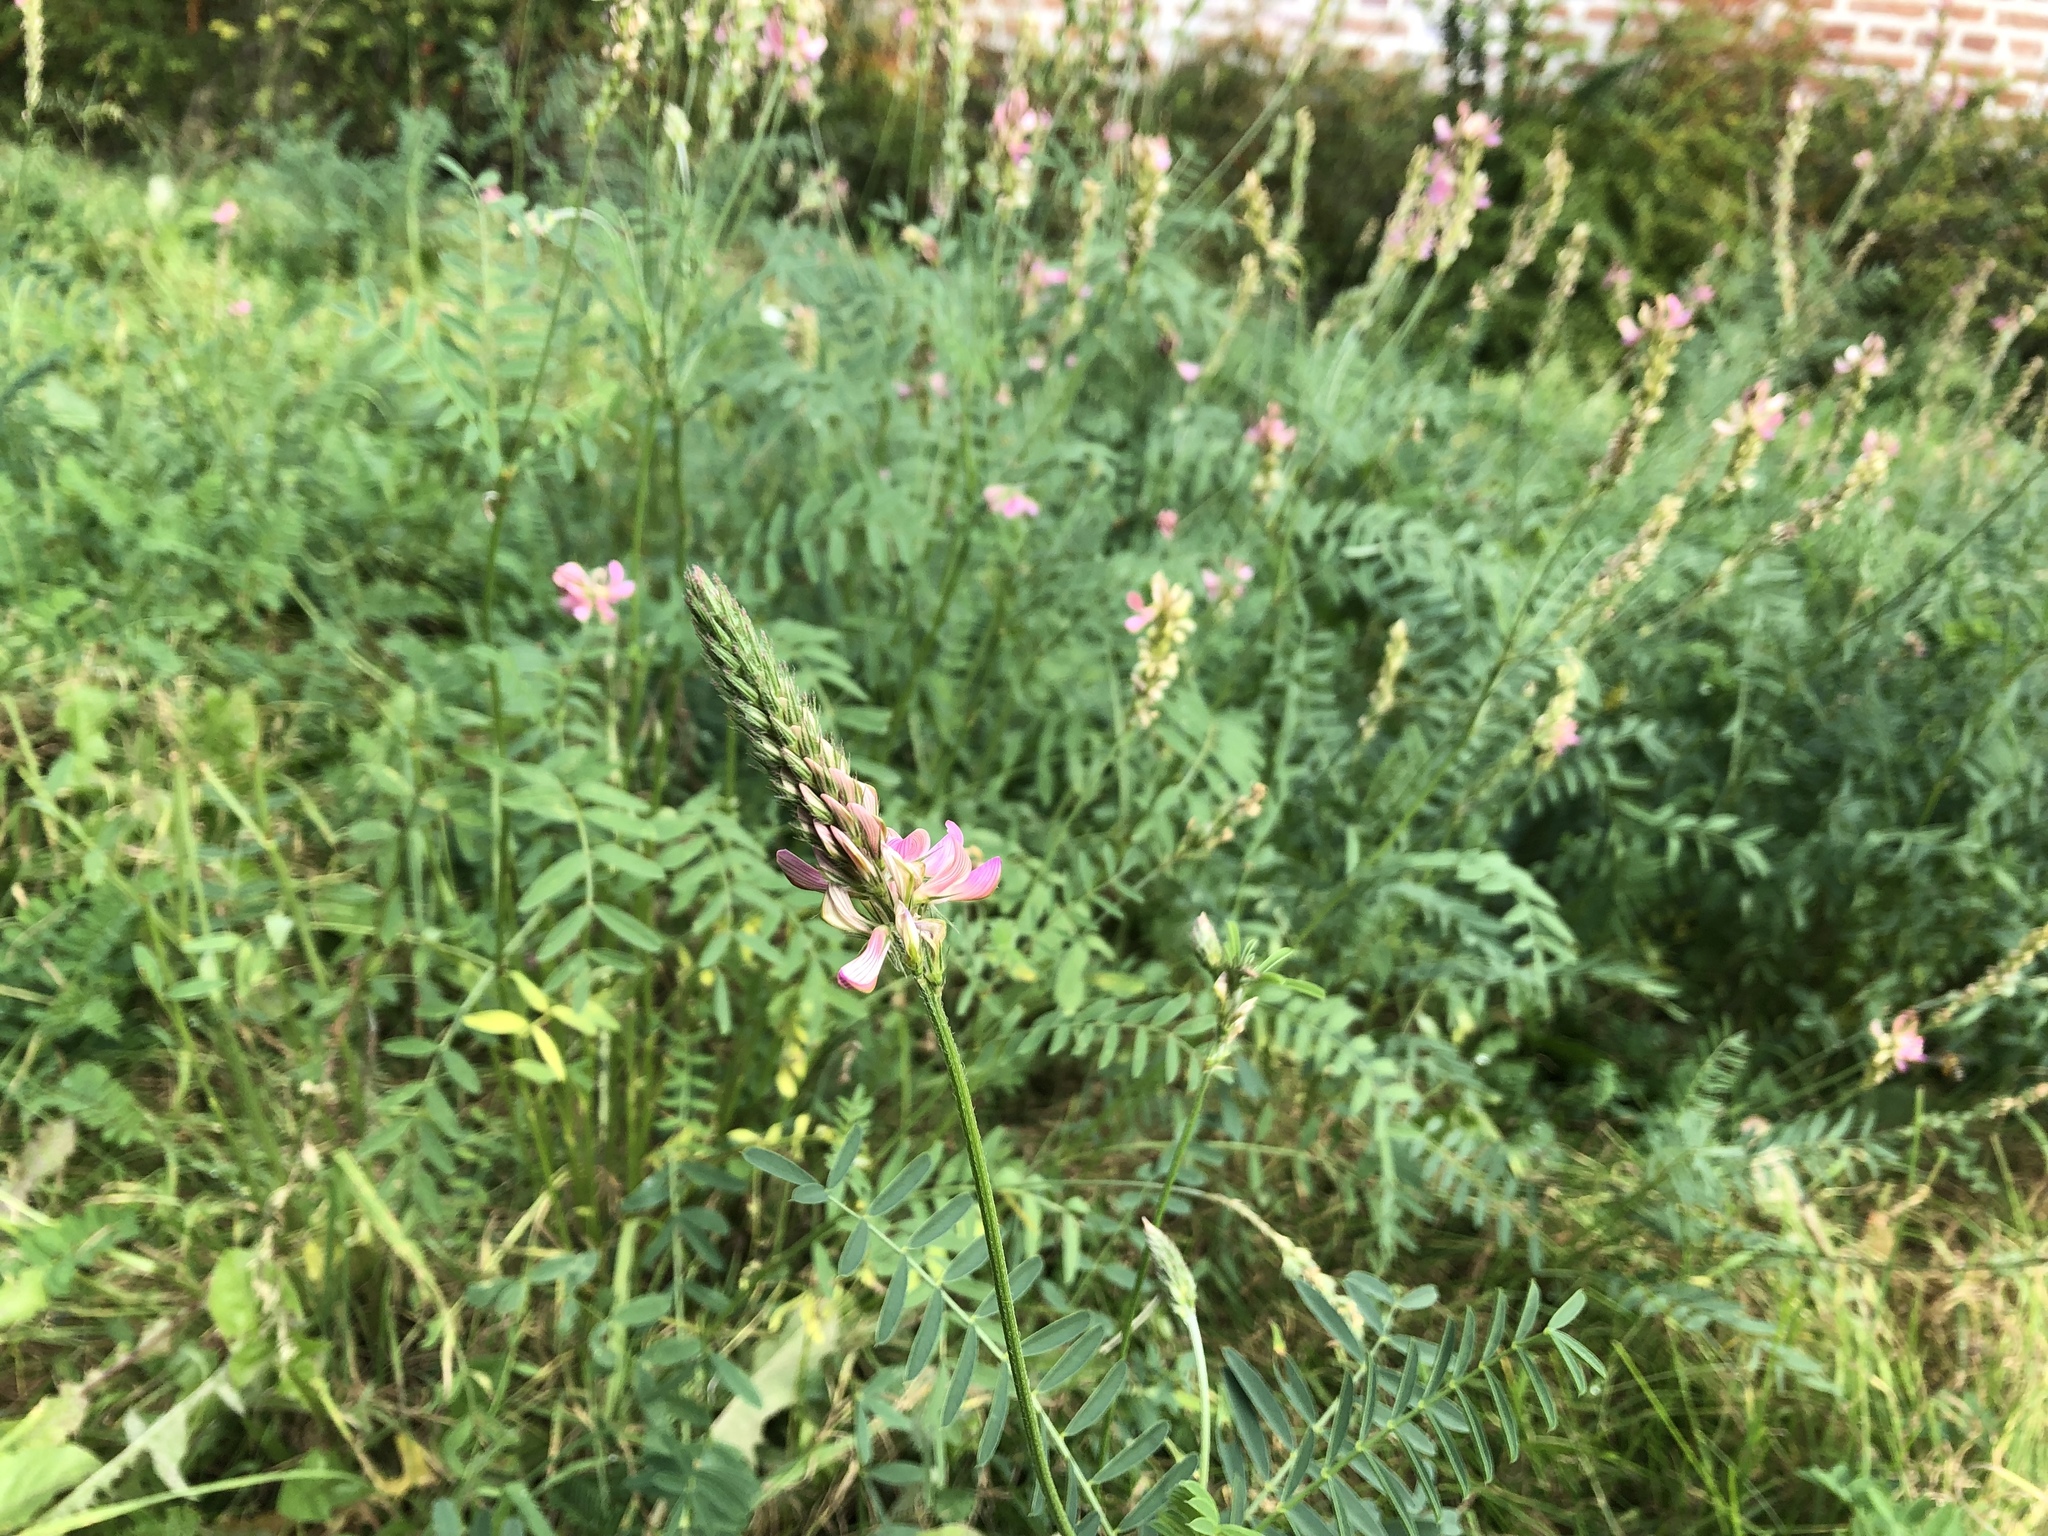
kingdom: Plantae
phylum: Tracheophyta
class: Magnoliopsida
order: Fabales
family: Fabaceae
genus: Onobrychis
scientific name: Onobrychis viciifolia
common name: Sainfoin
